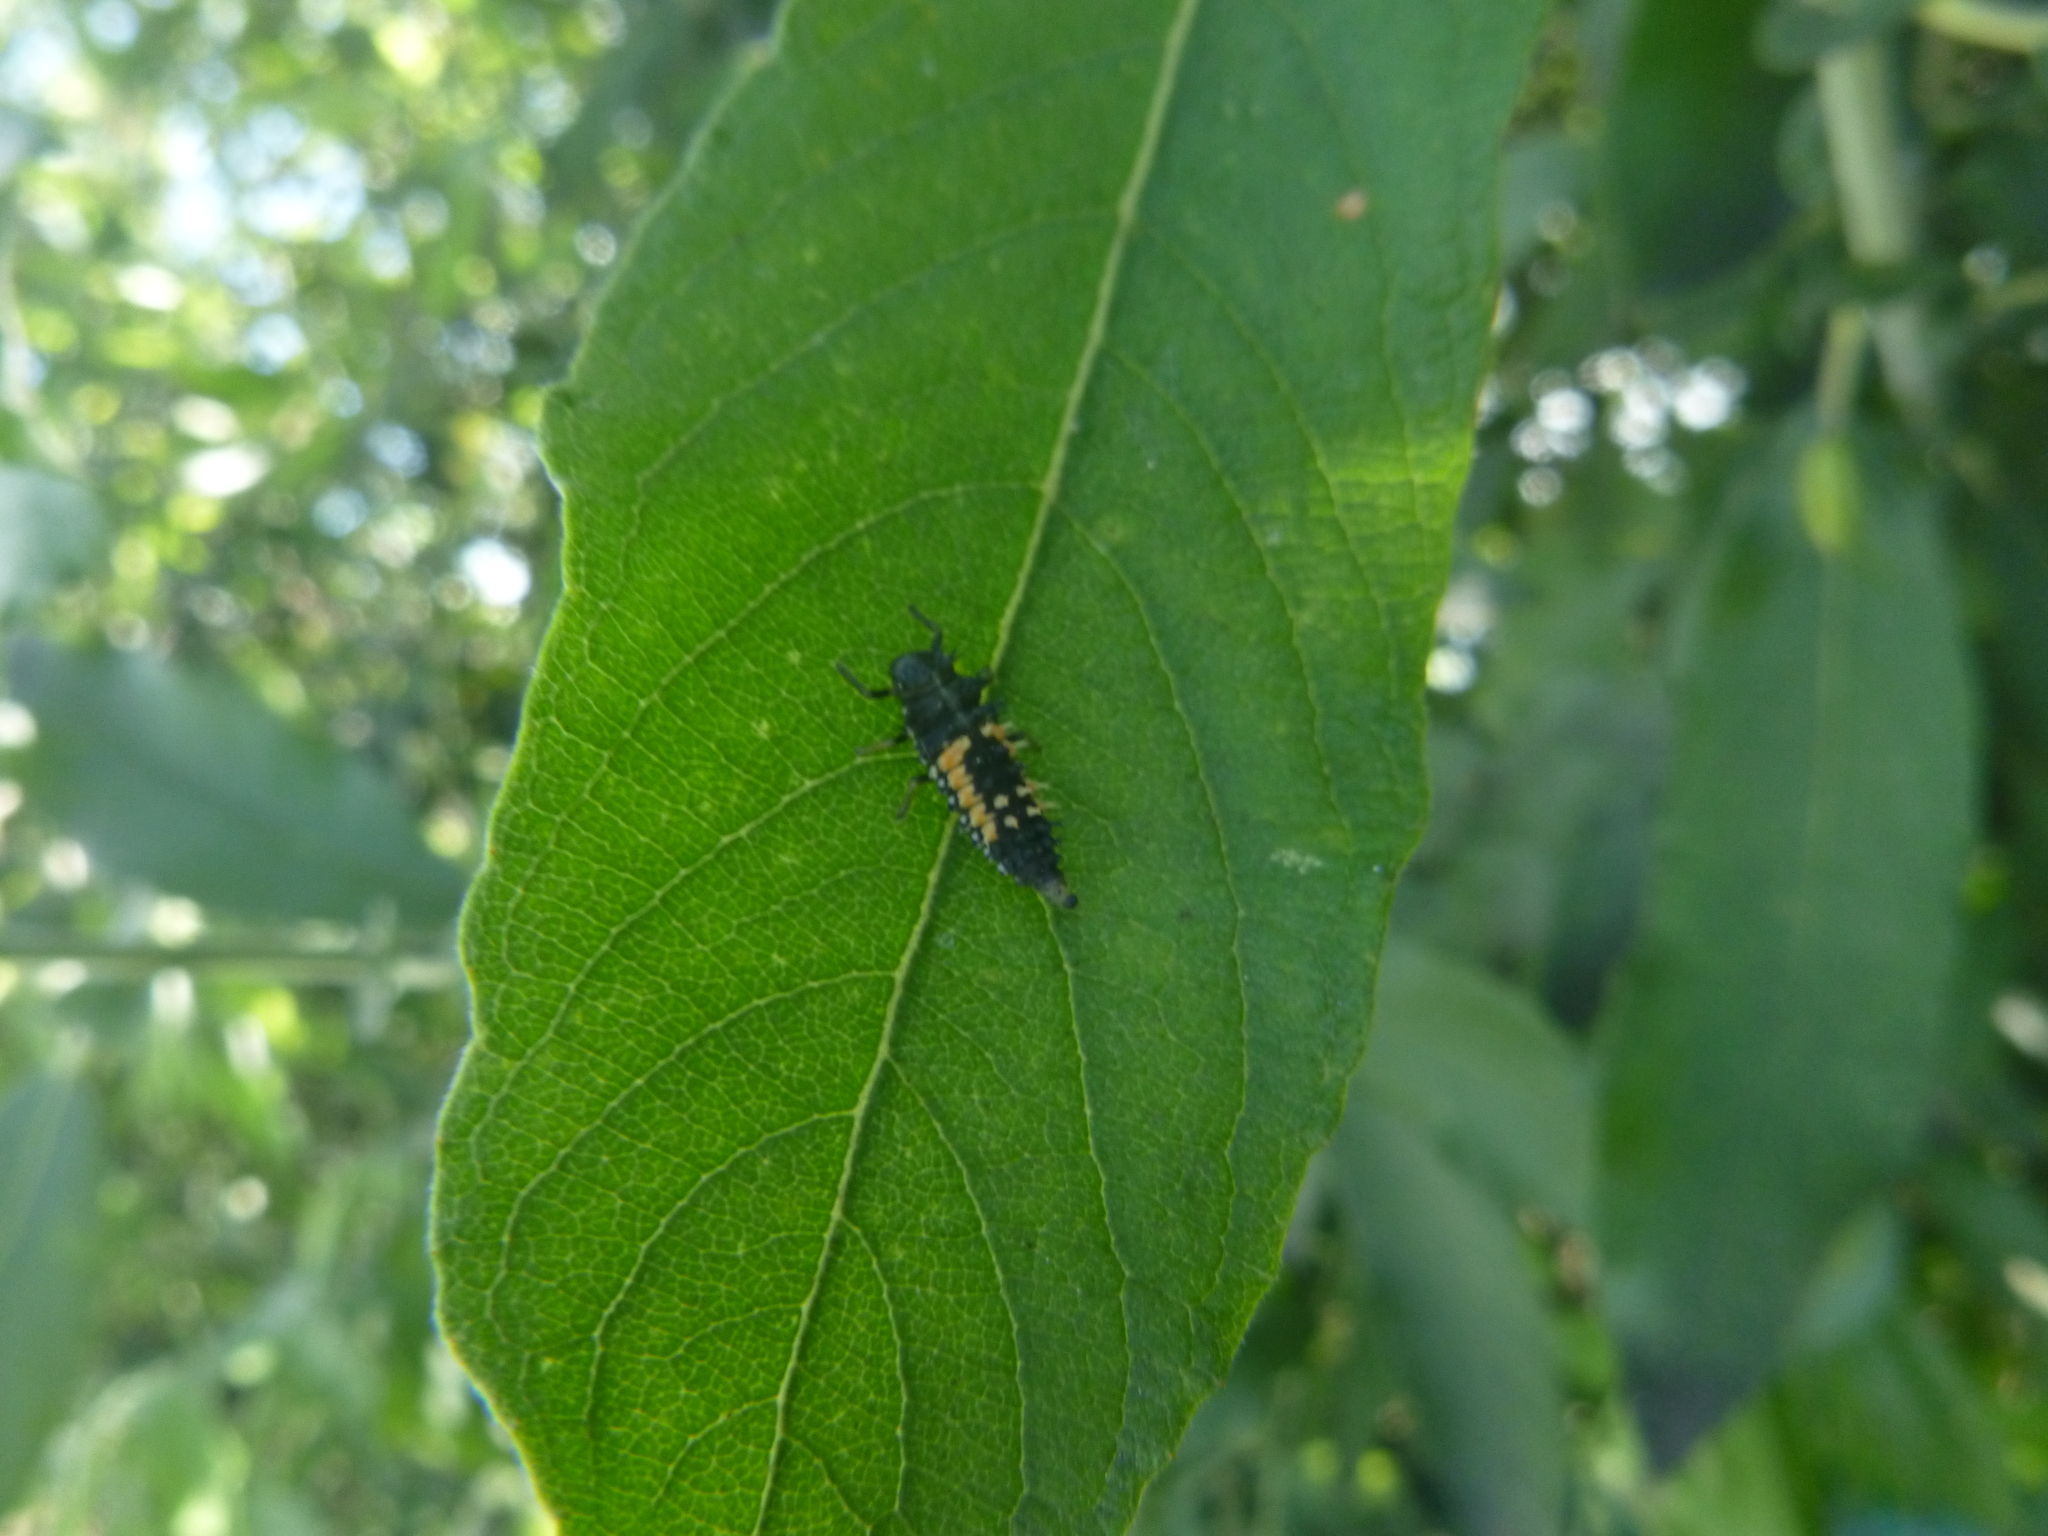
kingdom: Animalia
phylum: Arthropoda
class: Insecta
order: Coleoptera
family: Coccinellidae
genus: Harmonia
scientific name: Harmonia axyridis
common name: Harlequin ladybird
